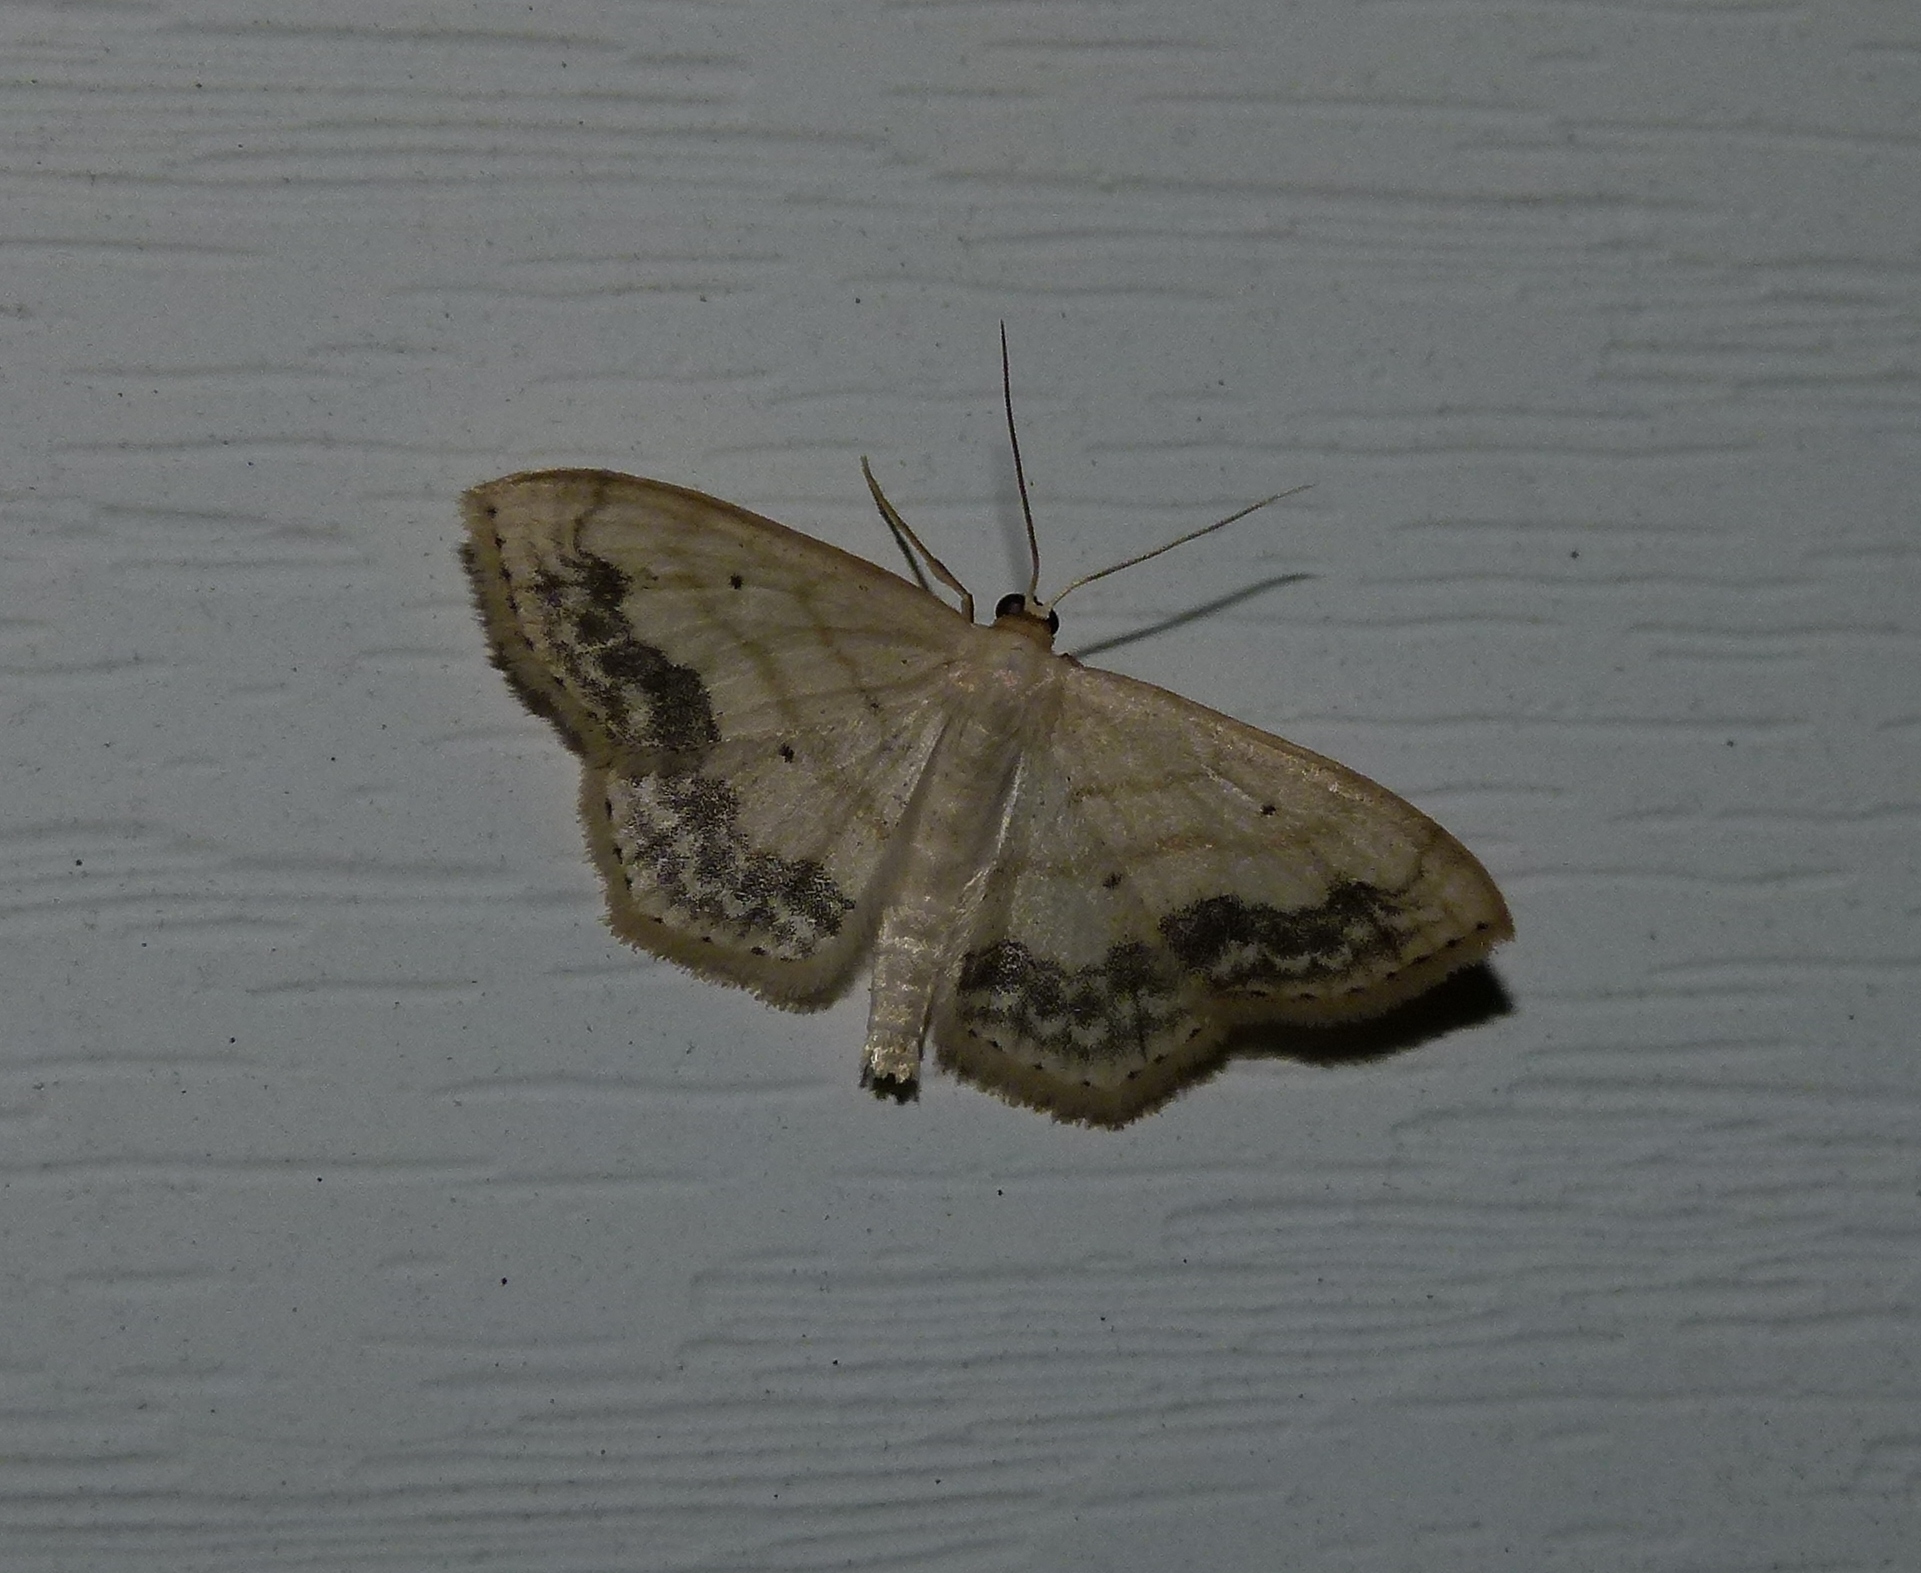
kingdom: Animalia
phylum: Arthropoda
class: Insecta
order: Lepidoptera
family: Geometridae
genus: Scopula
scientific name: Scopula limboundata
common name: Large lace border
